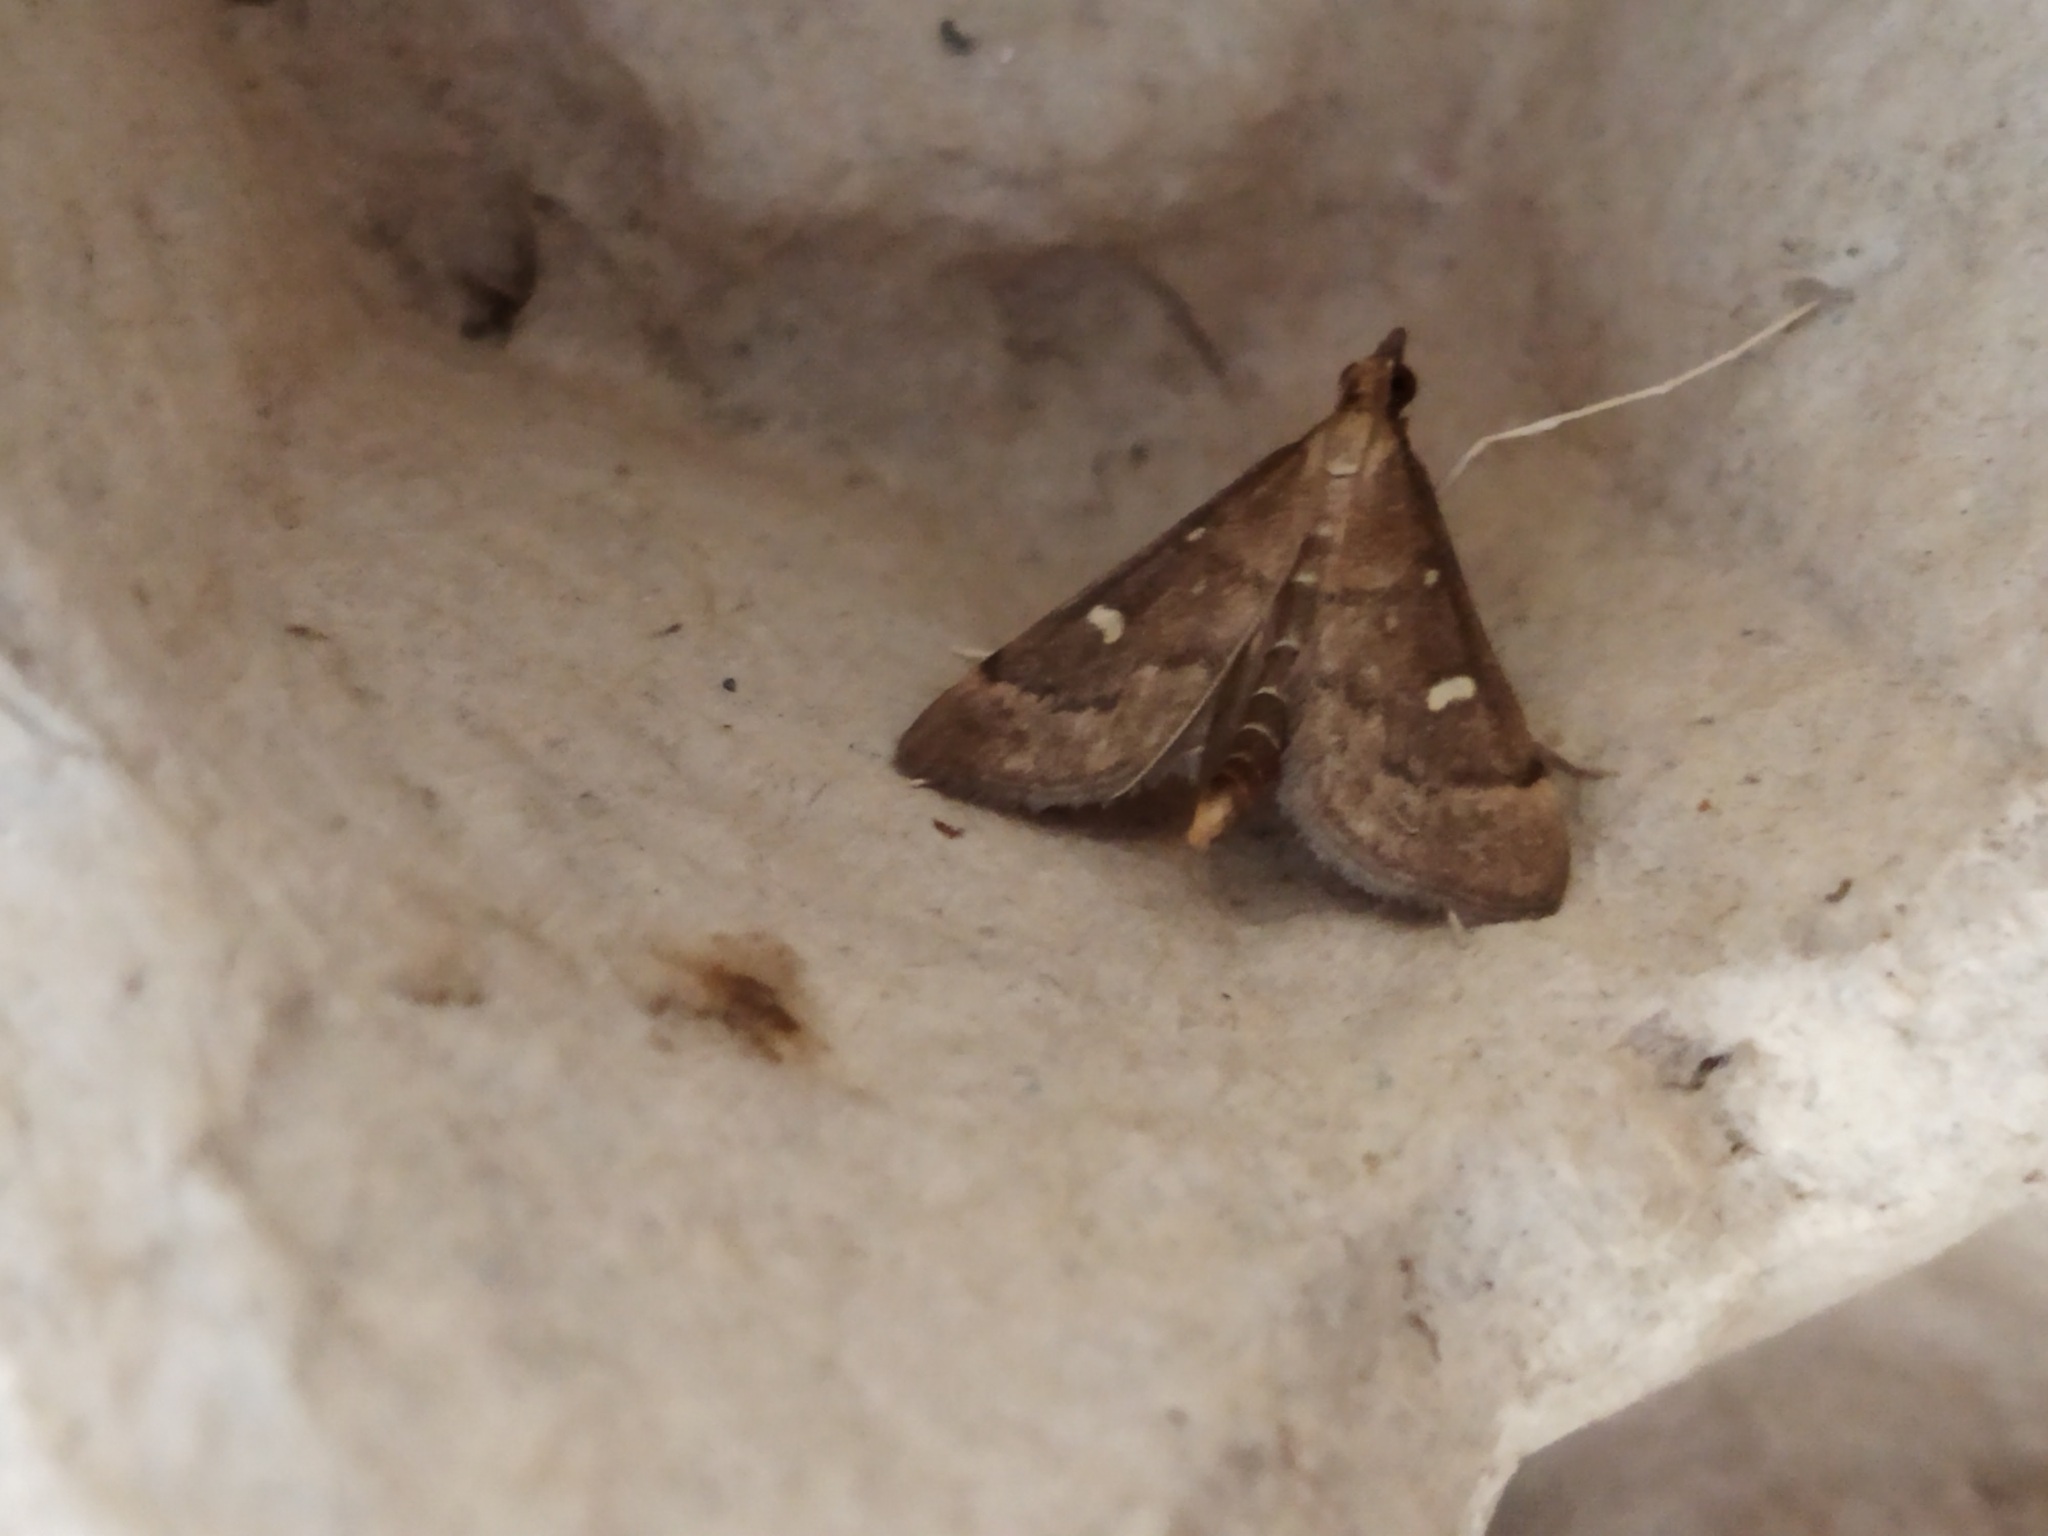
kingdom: Animalia
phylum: Arthropoda
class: Insecta
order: Lepidoptera
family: Crambidae
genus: Stenia
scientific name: Stenia Dolicharthria punctalis
